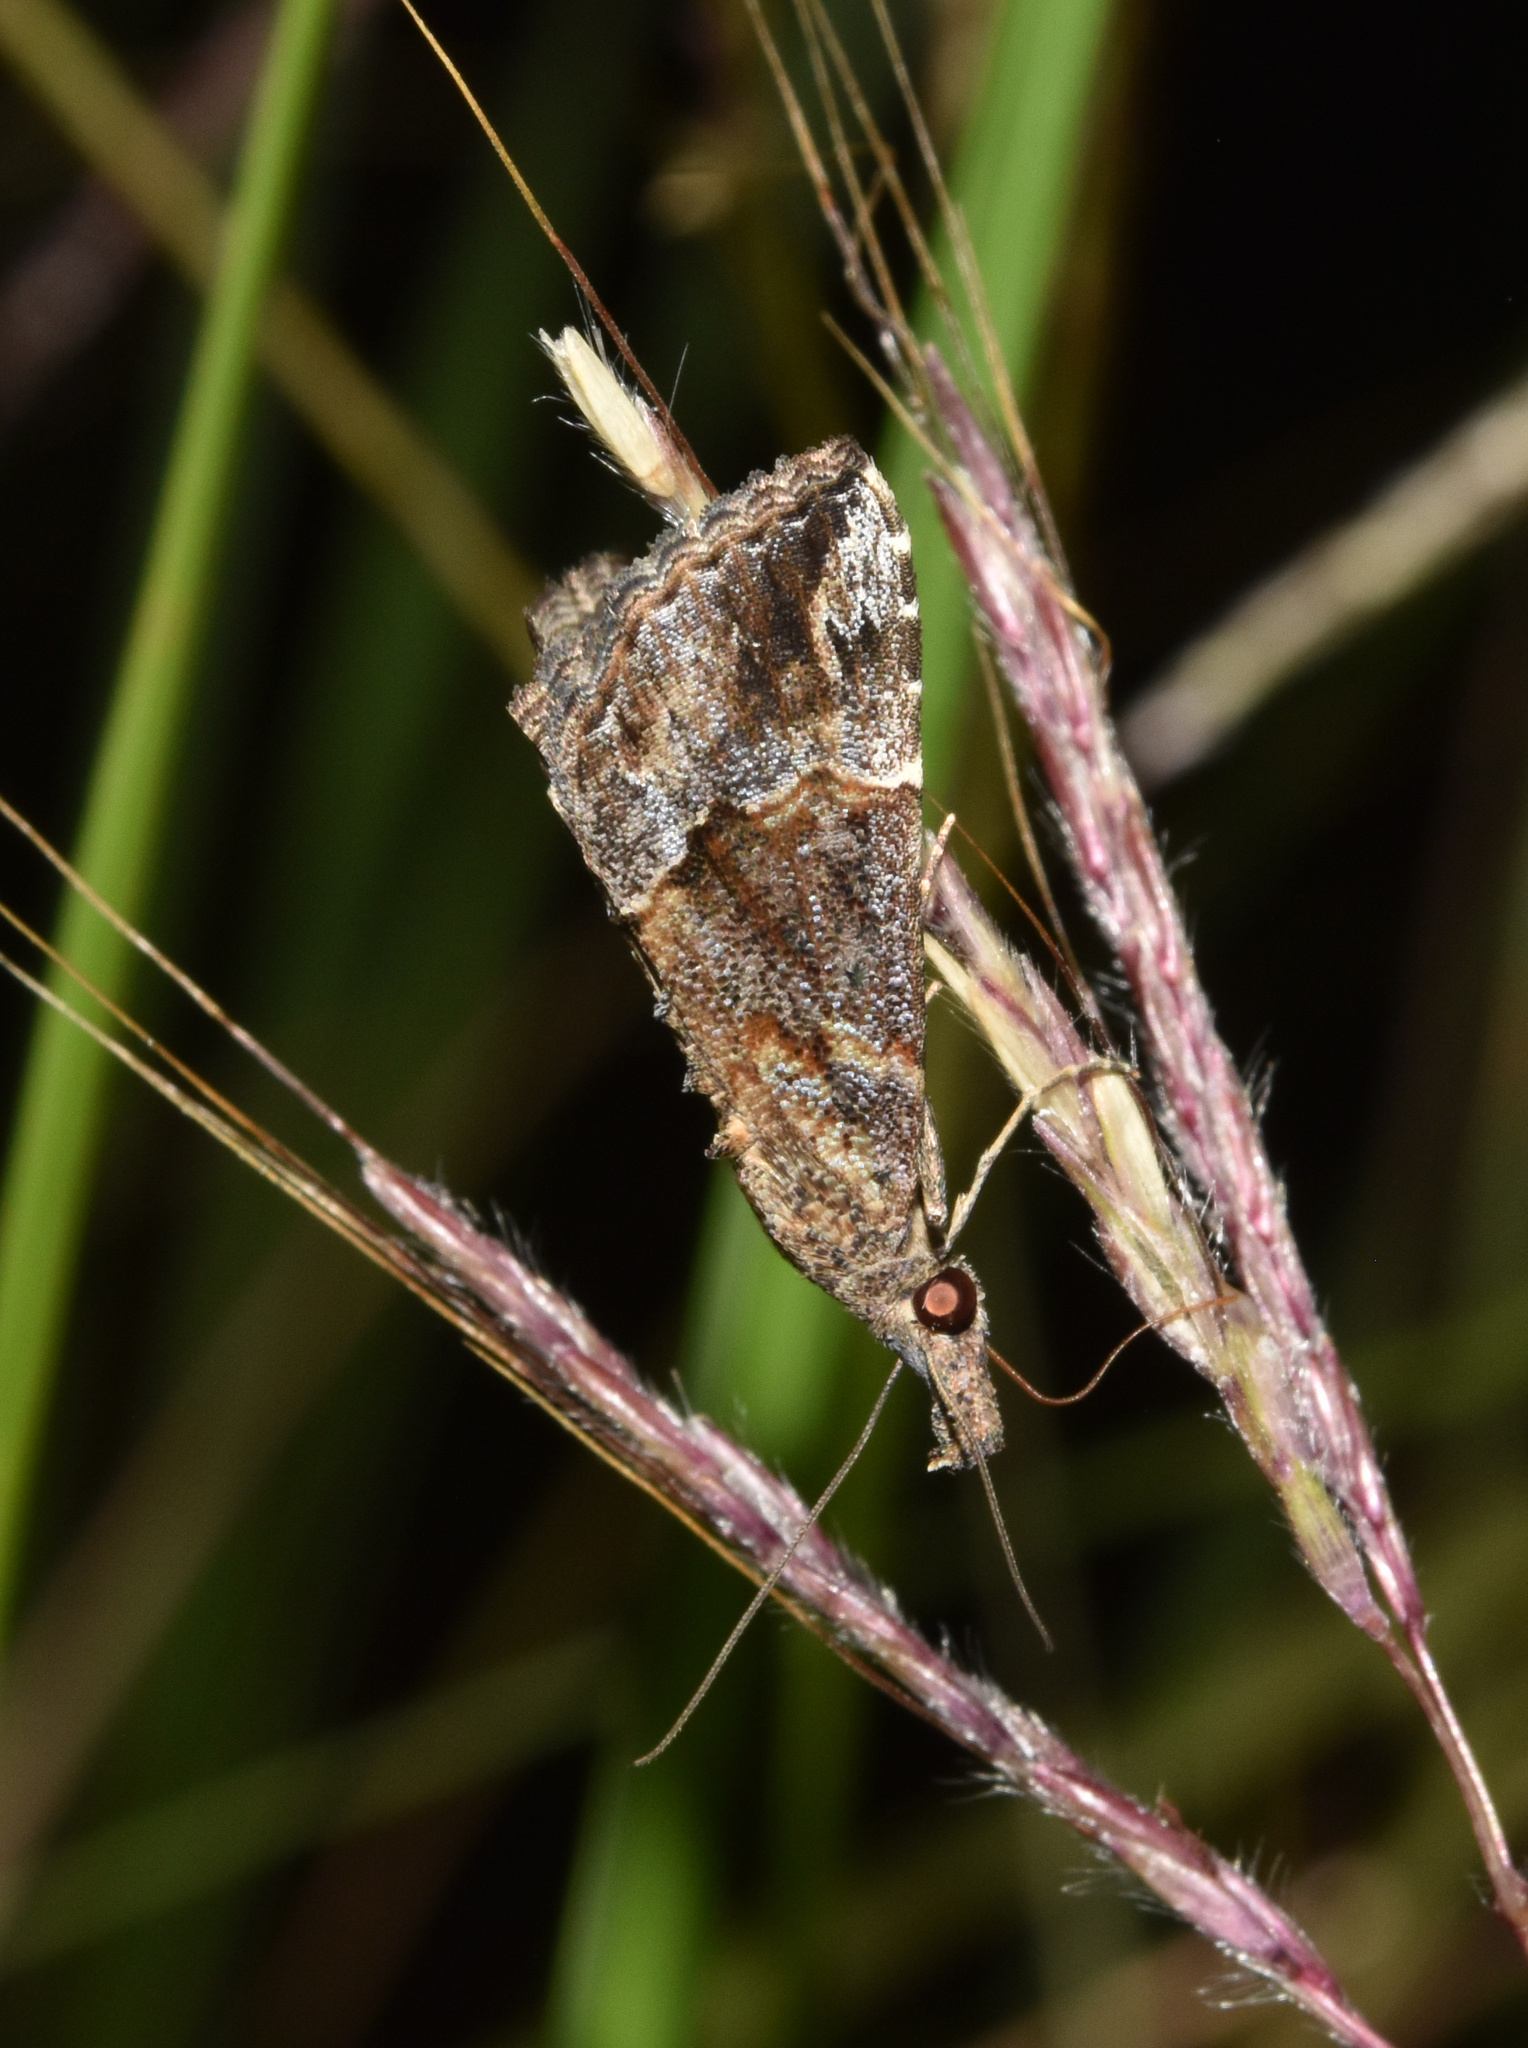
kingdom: Animalia
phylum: Arthropoda
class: Insecta
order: Lepidoptera
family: Erebidae
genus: Hypena
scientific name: Hypena commixtalis
